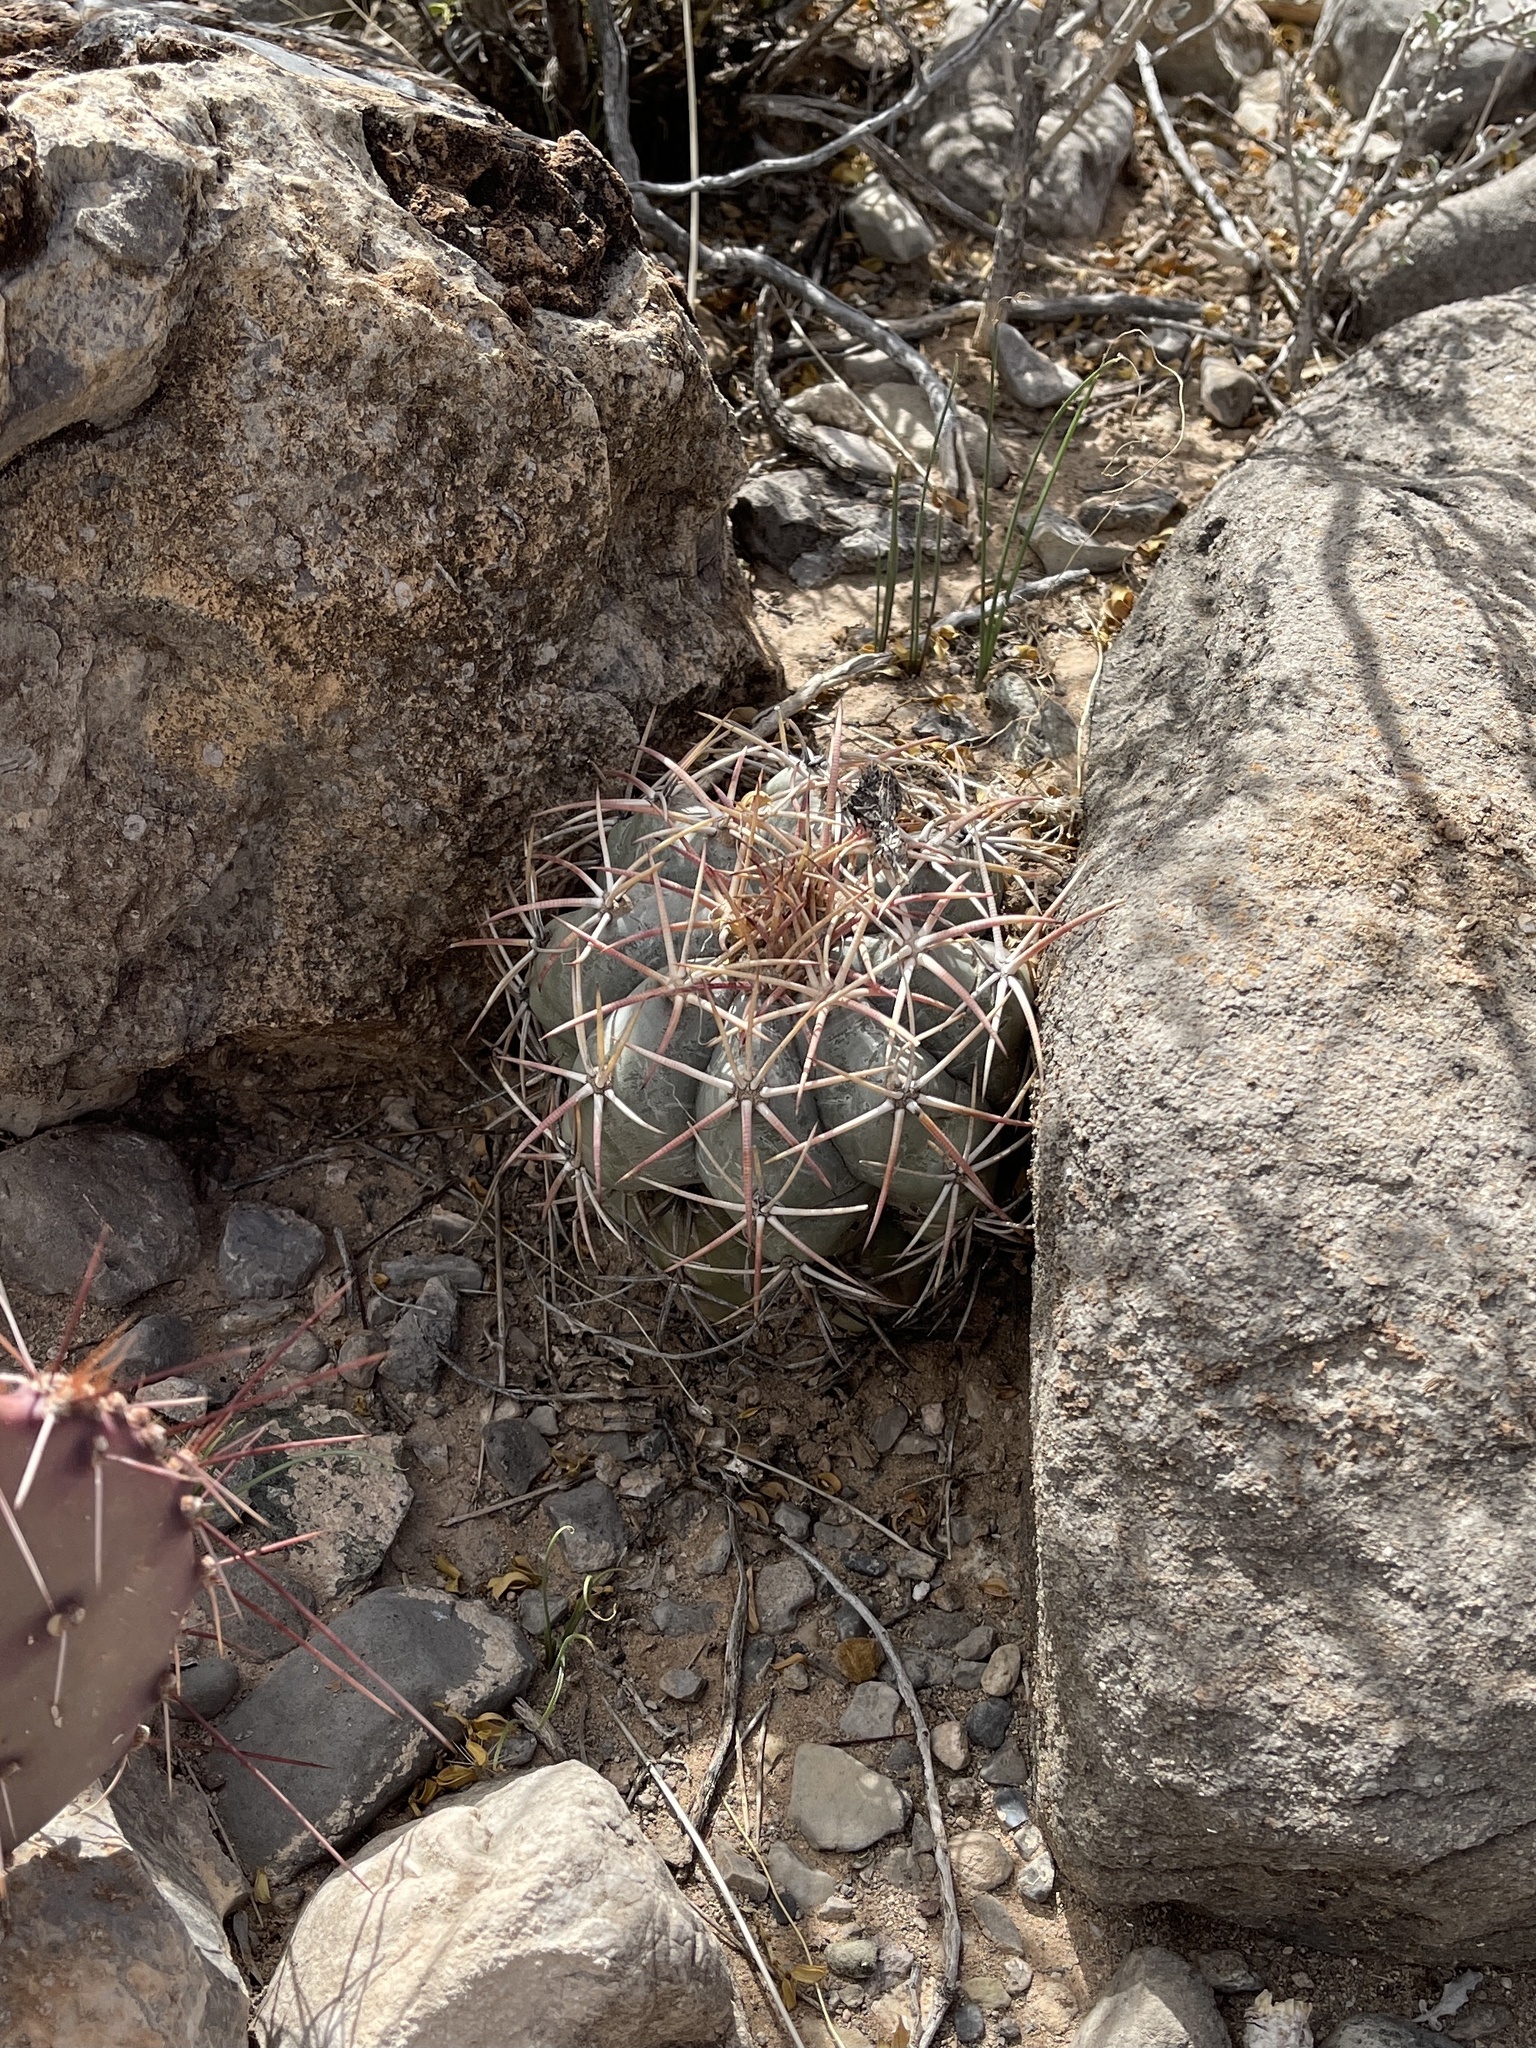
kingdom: Plantae
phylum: Tracheophyta
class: Magnoliopsida
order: Caryophyllales
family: Cactaceae
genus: Echinocactus
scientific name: Echinocactus horizonthalonius
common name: Devilshead
